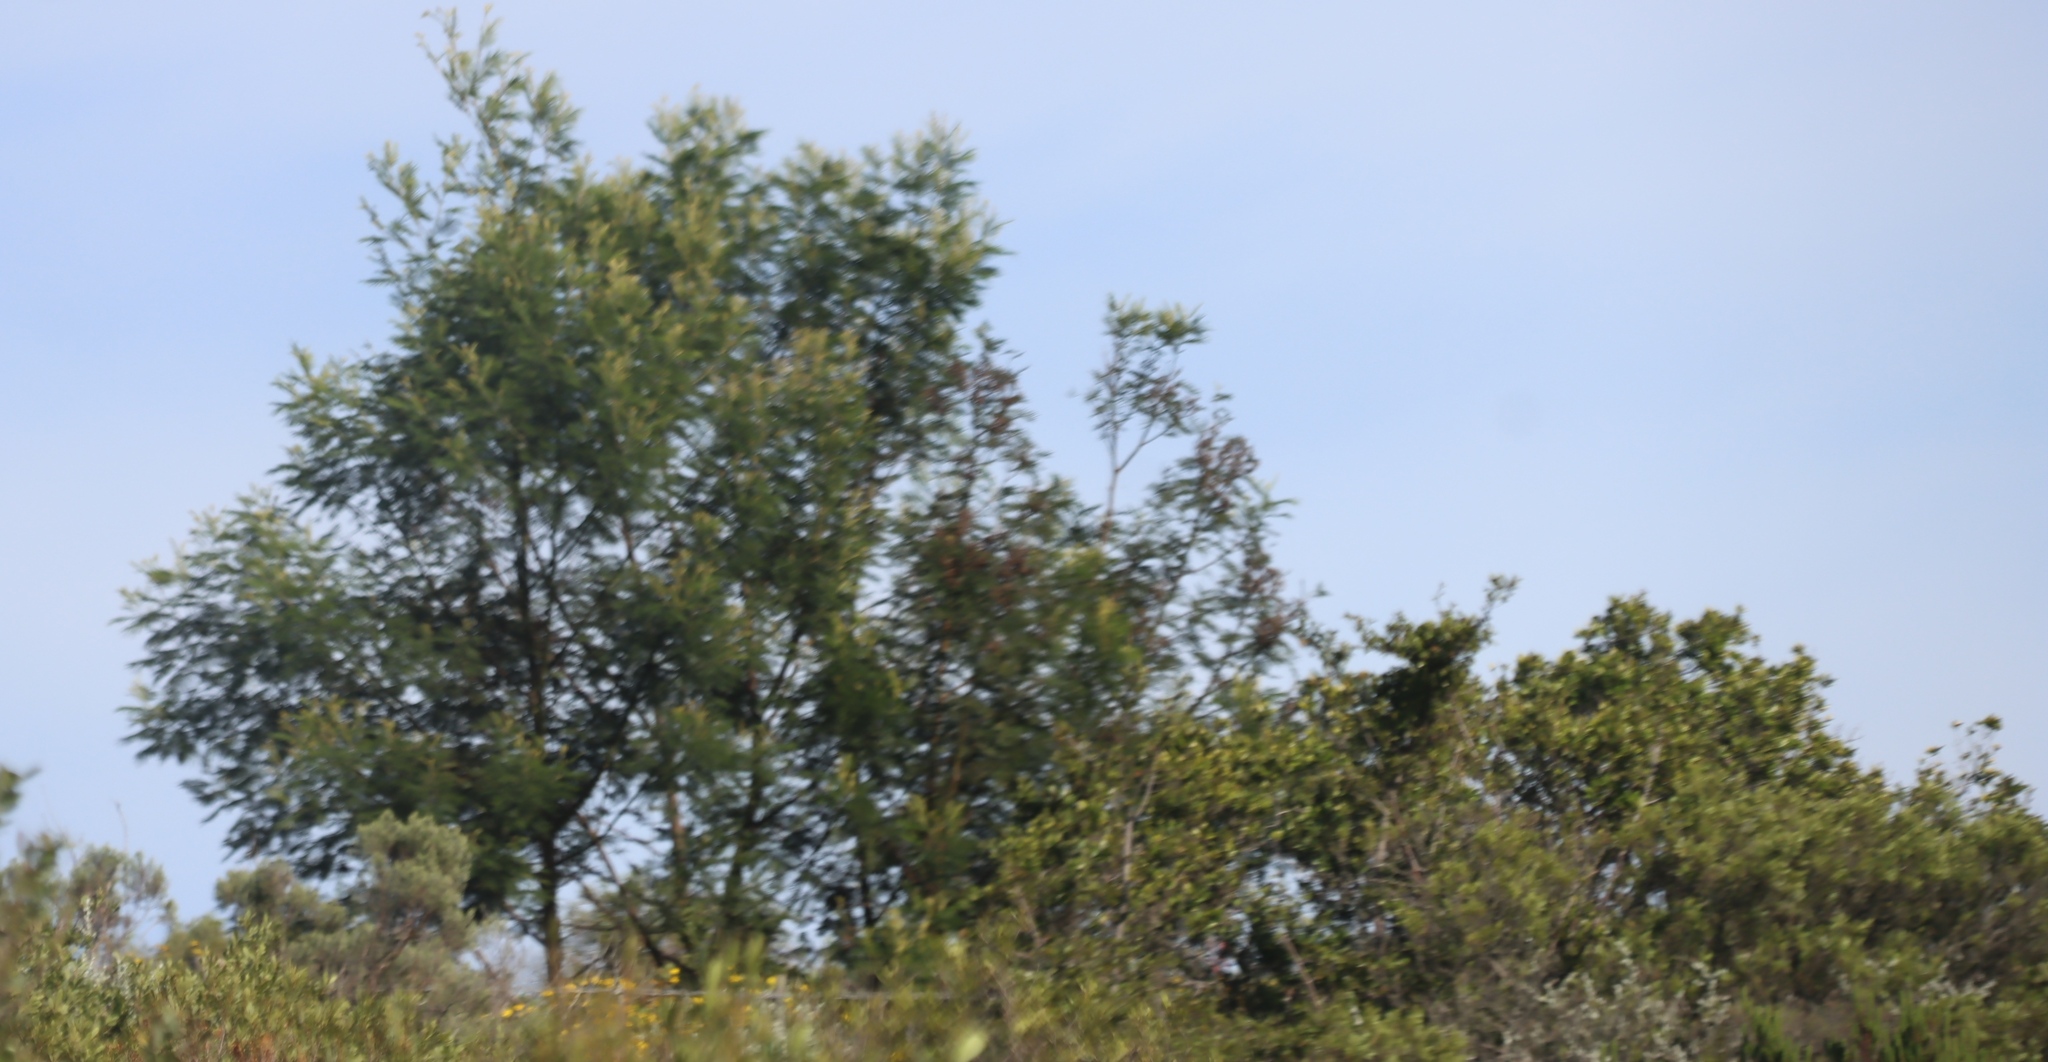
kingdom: Plantae
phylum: Tracheophyta
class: Magnoliopsida
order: Fabales
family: Fabaceae
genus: Acacia
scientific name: Acacia mearnsii
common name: Black wattle
